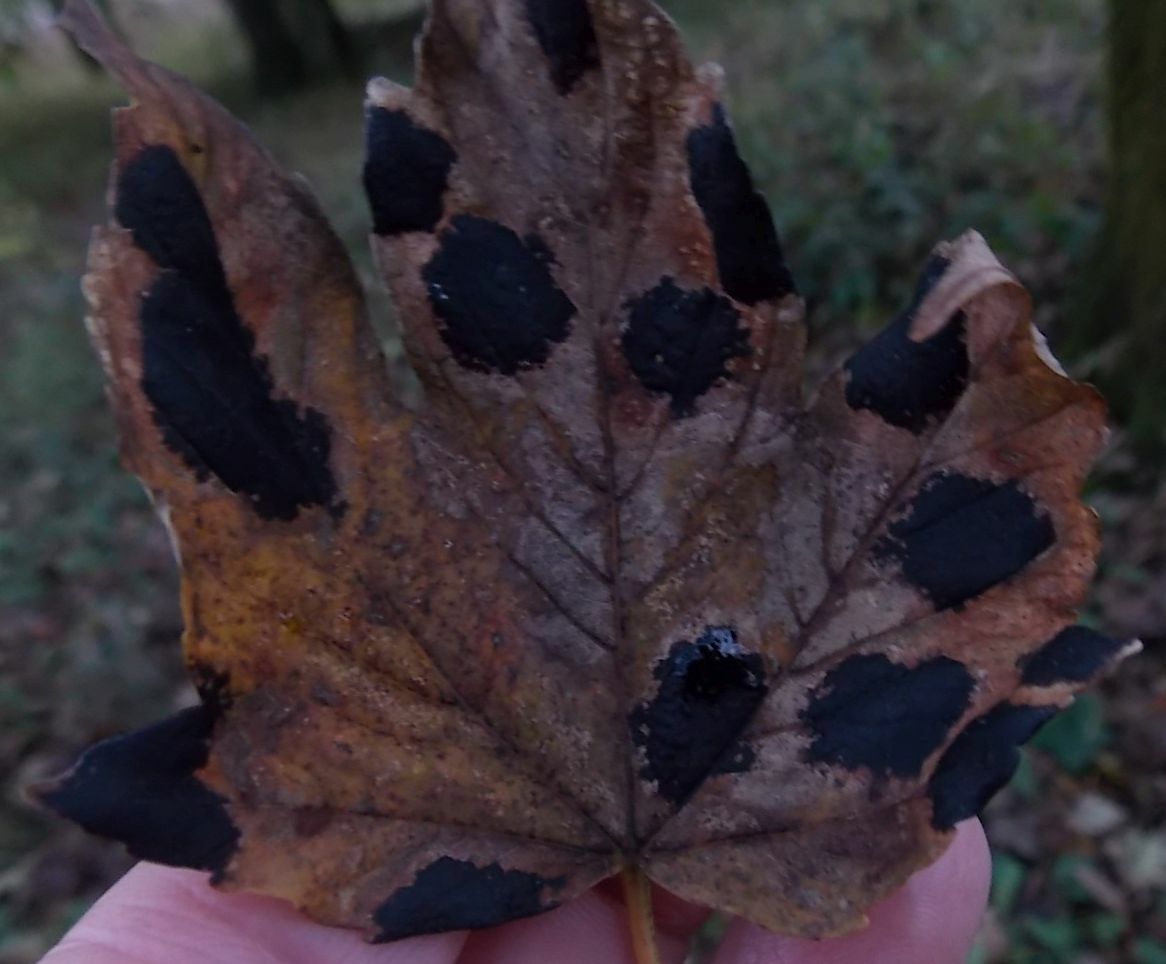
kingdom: Fungi
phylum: Ascomycota
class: Leotiomycetes
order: Rhytismatales
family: Rhytismataceae
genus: Rhytisma
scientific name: Rhytisma acerinum
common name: European tar spot
